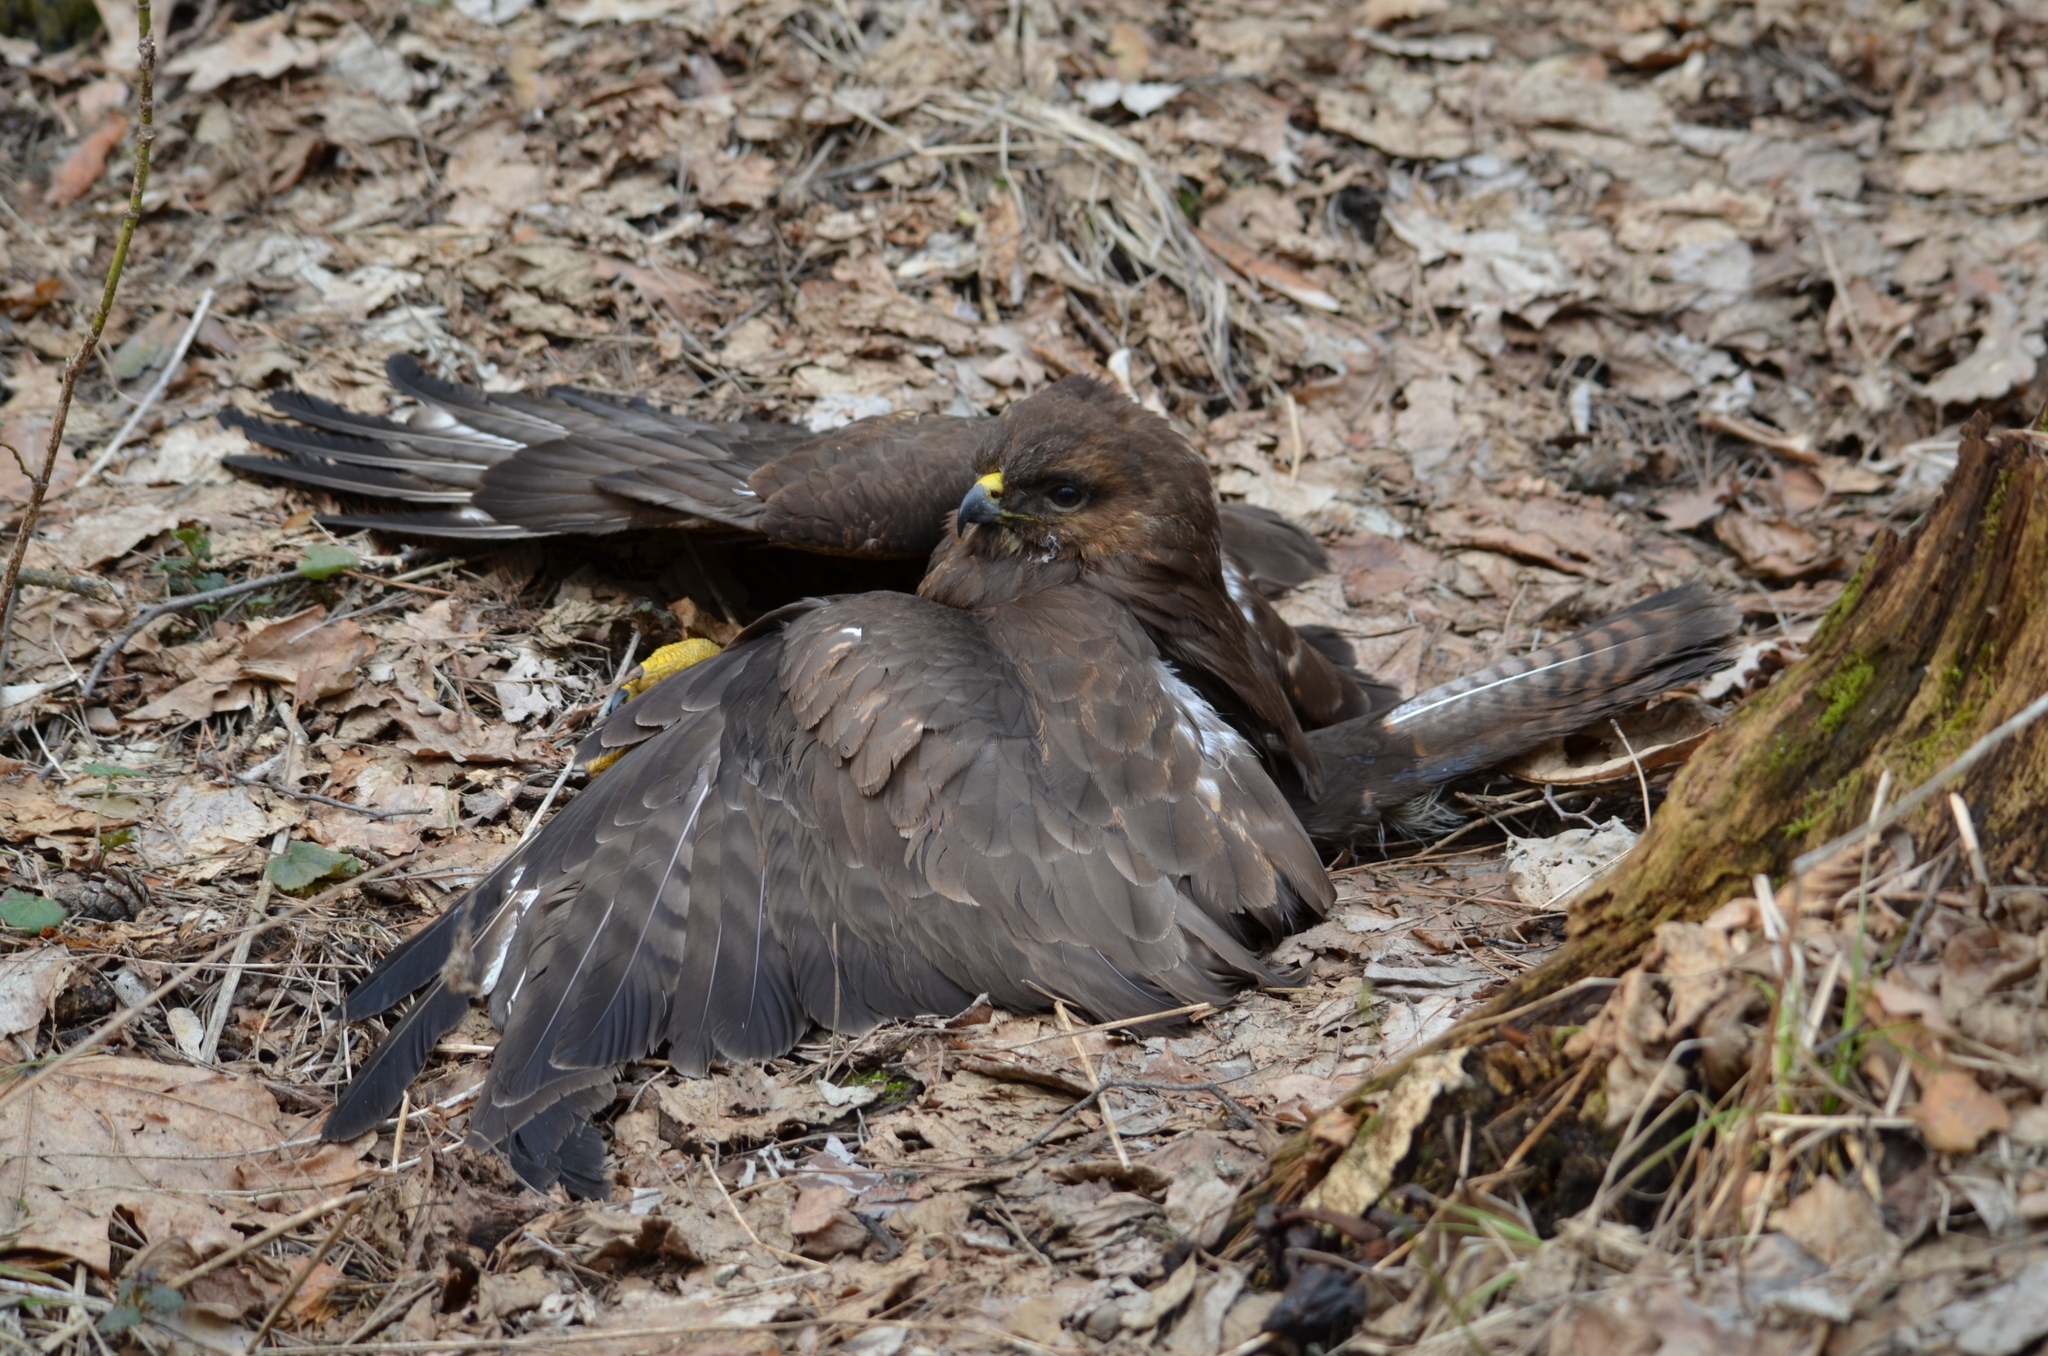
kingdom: Animalia
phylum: Chordata
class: Aves
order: Accipitriformes
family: Accipitridae
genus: Buteo
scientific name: Buteo buteo
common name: Common buzzard
